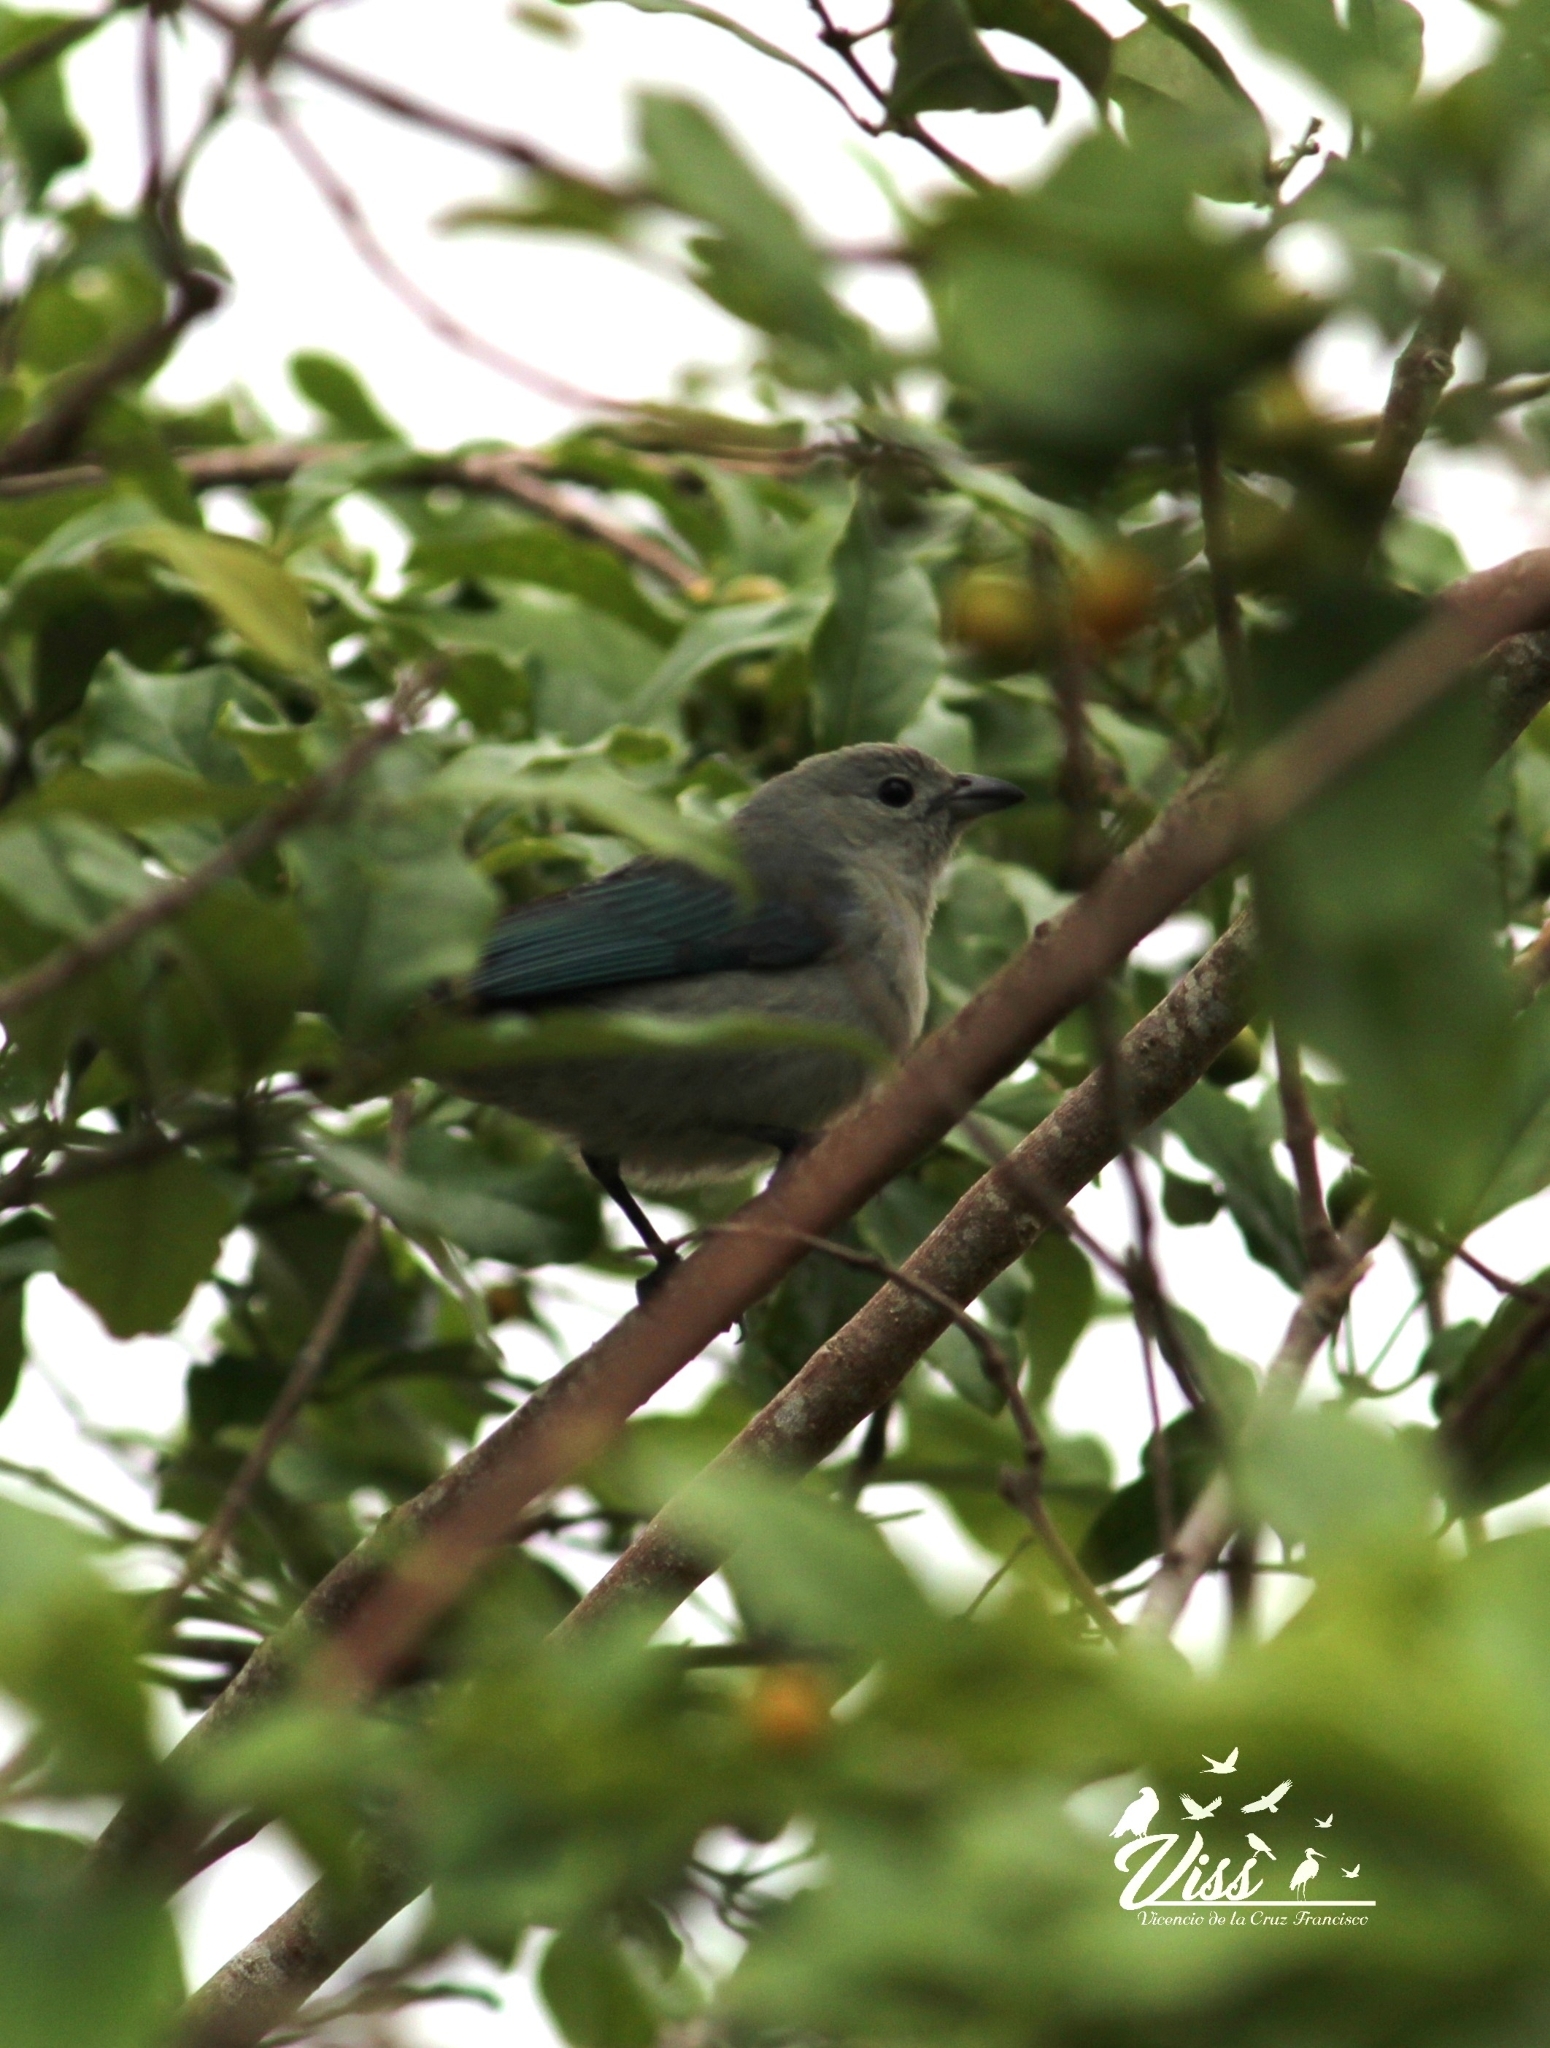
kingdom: Animalia
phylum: Chordata
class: Aves
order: Passeriformes
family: Thraupidae
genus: Thraupis
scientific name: Thraupis episcopus
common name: Blue-grey tanager
